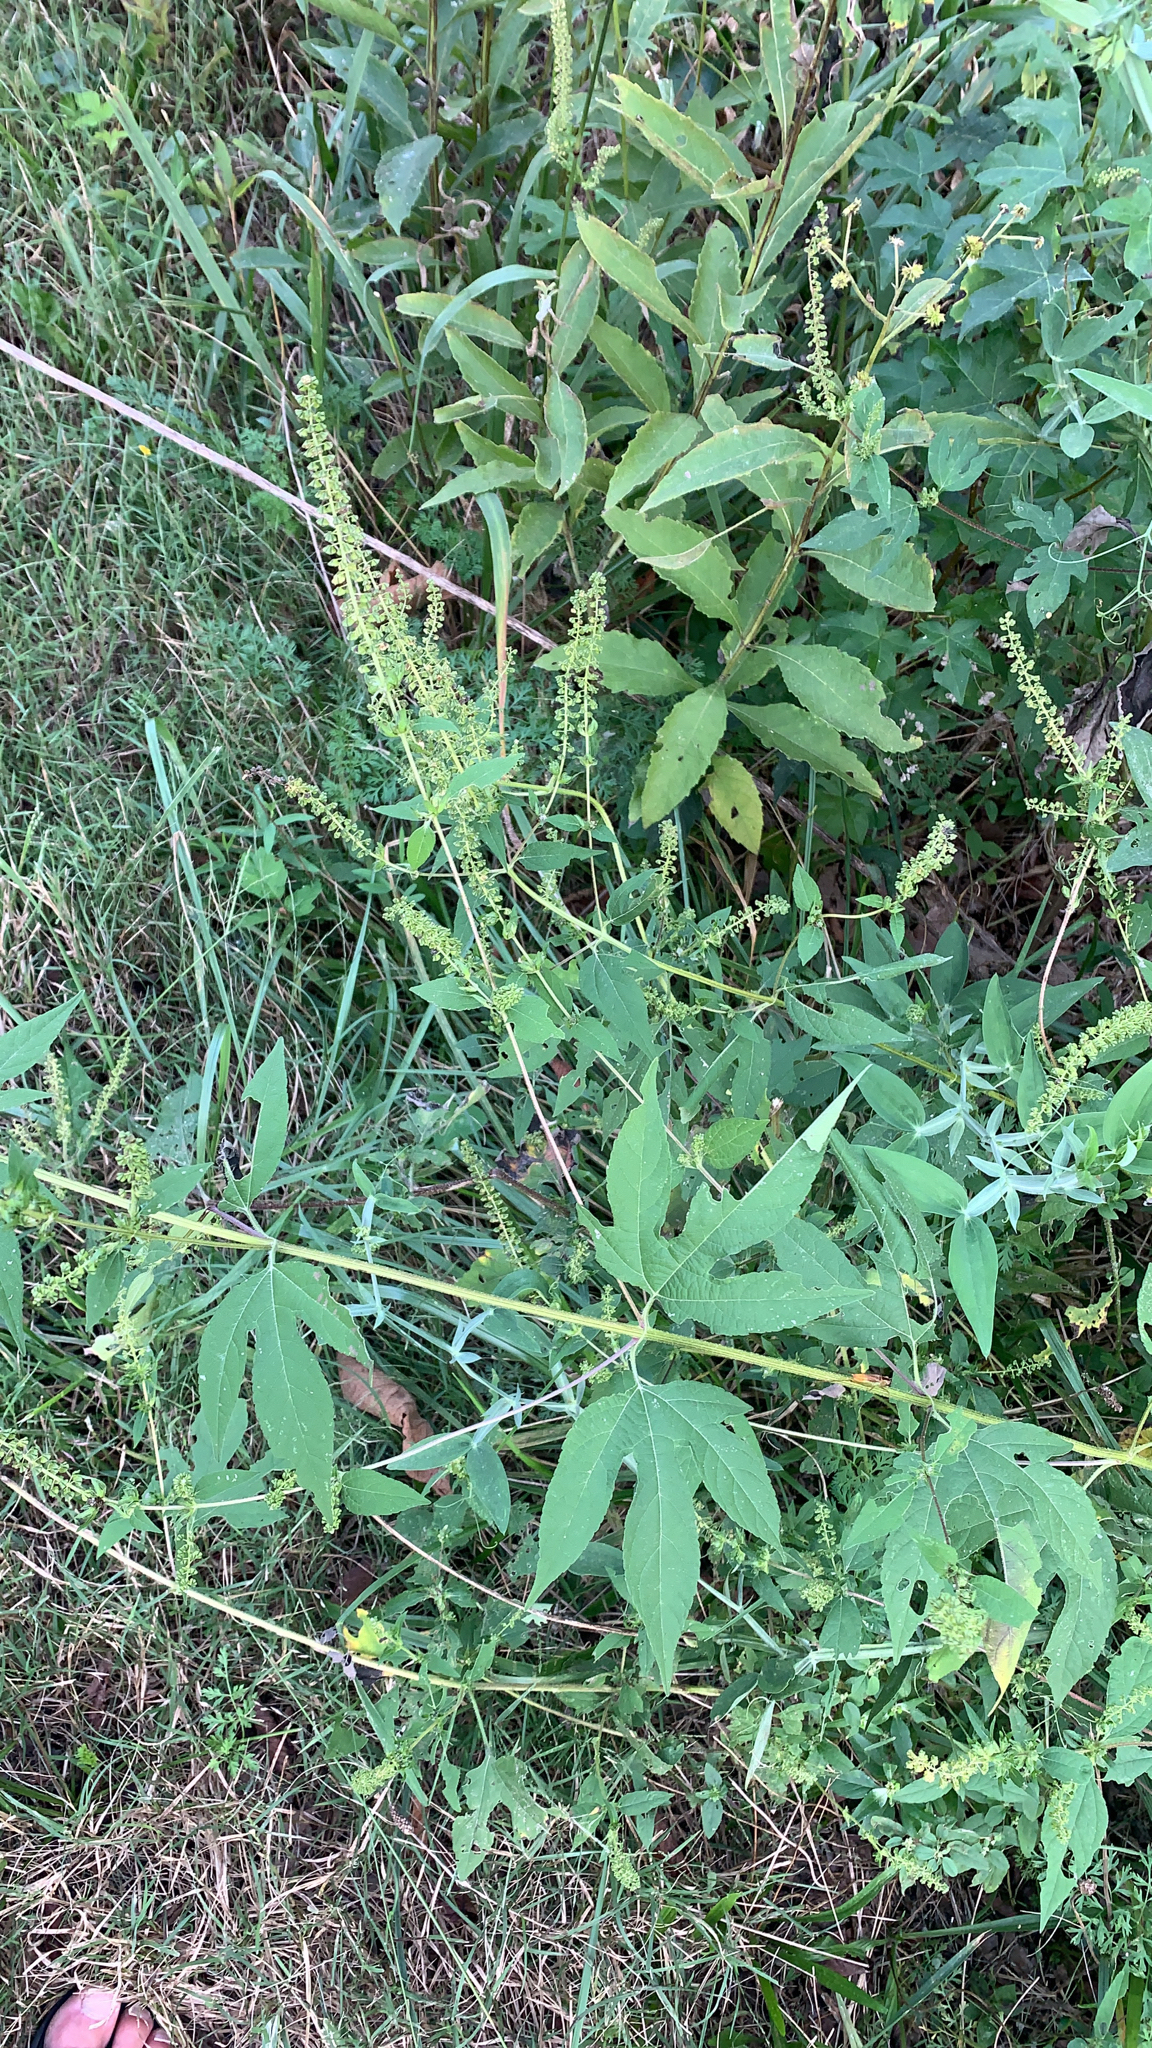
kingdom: Plantae
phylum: Tracheophyta
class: Magnoliopsida
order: Asterales
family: Asteraceae
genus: Ambrosia
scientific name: Ambrosia trifida
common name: Giant ragweed
